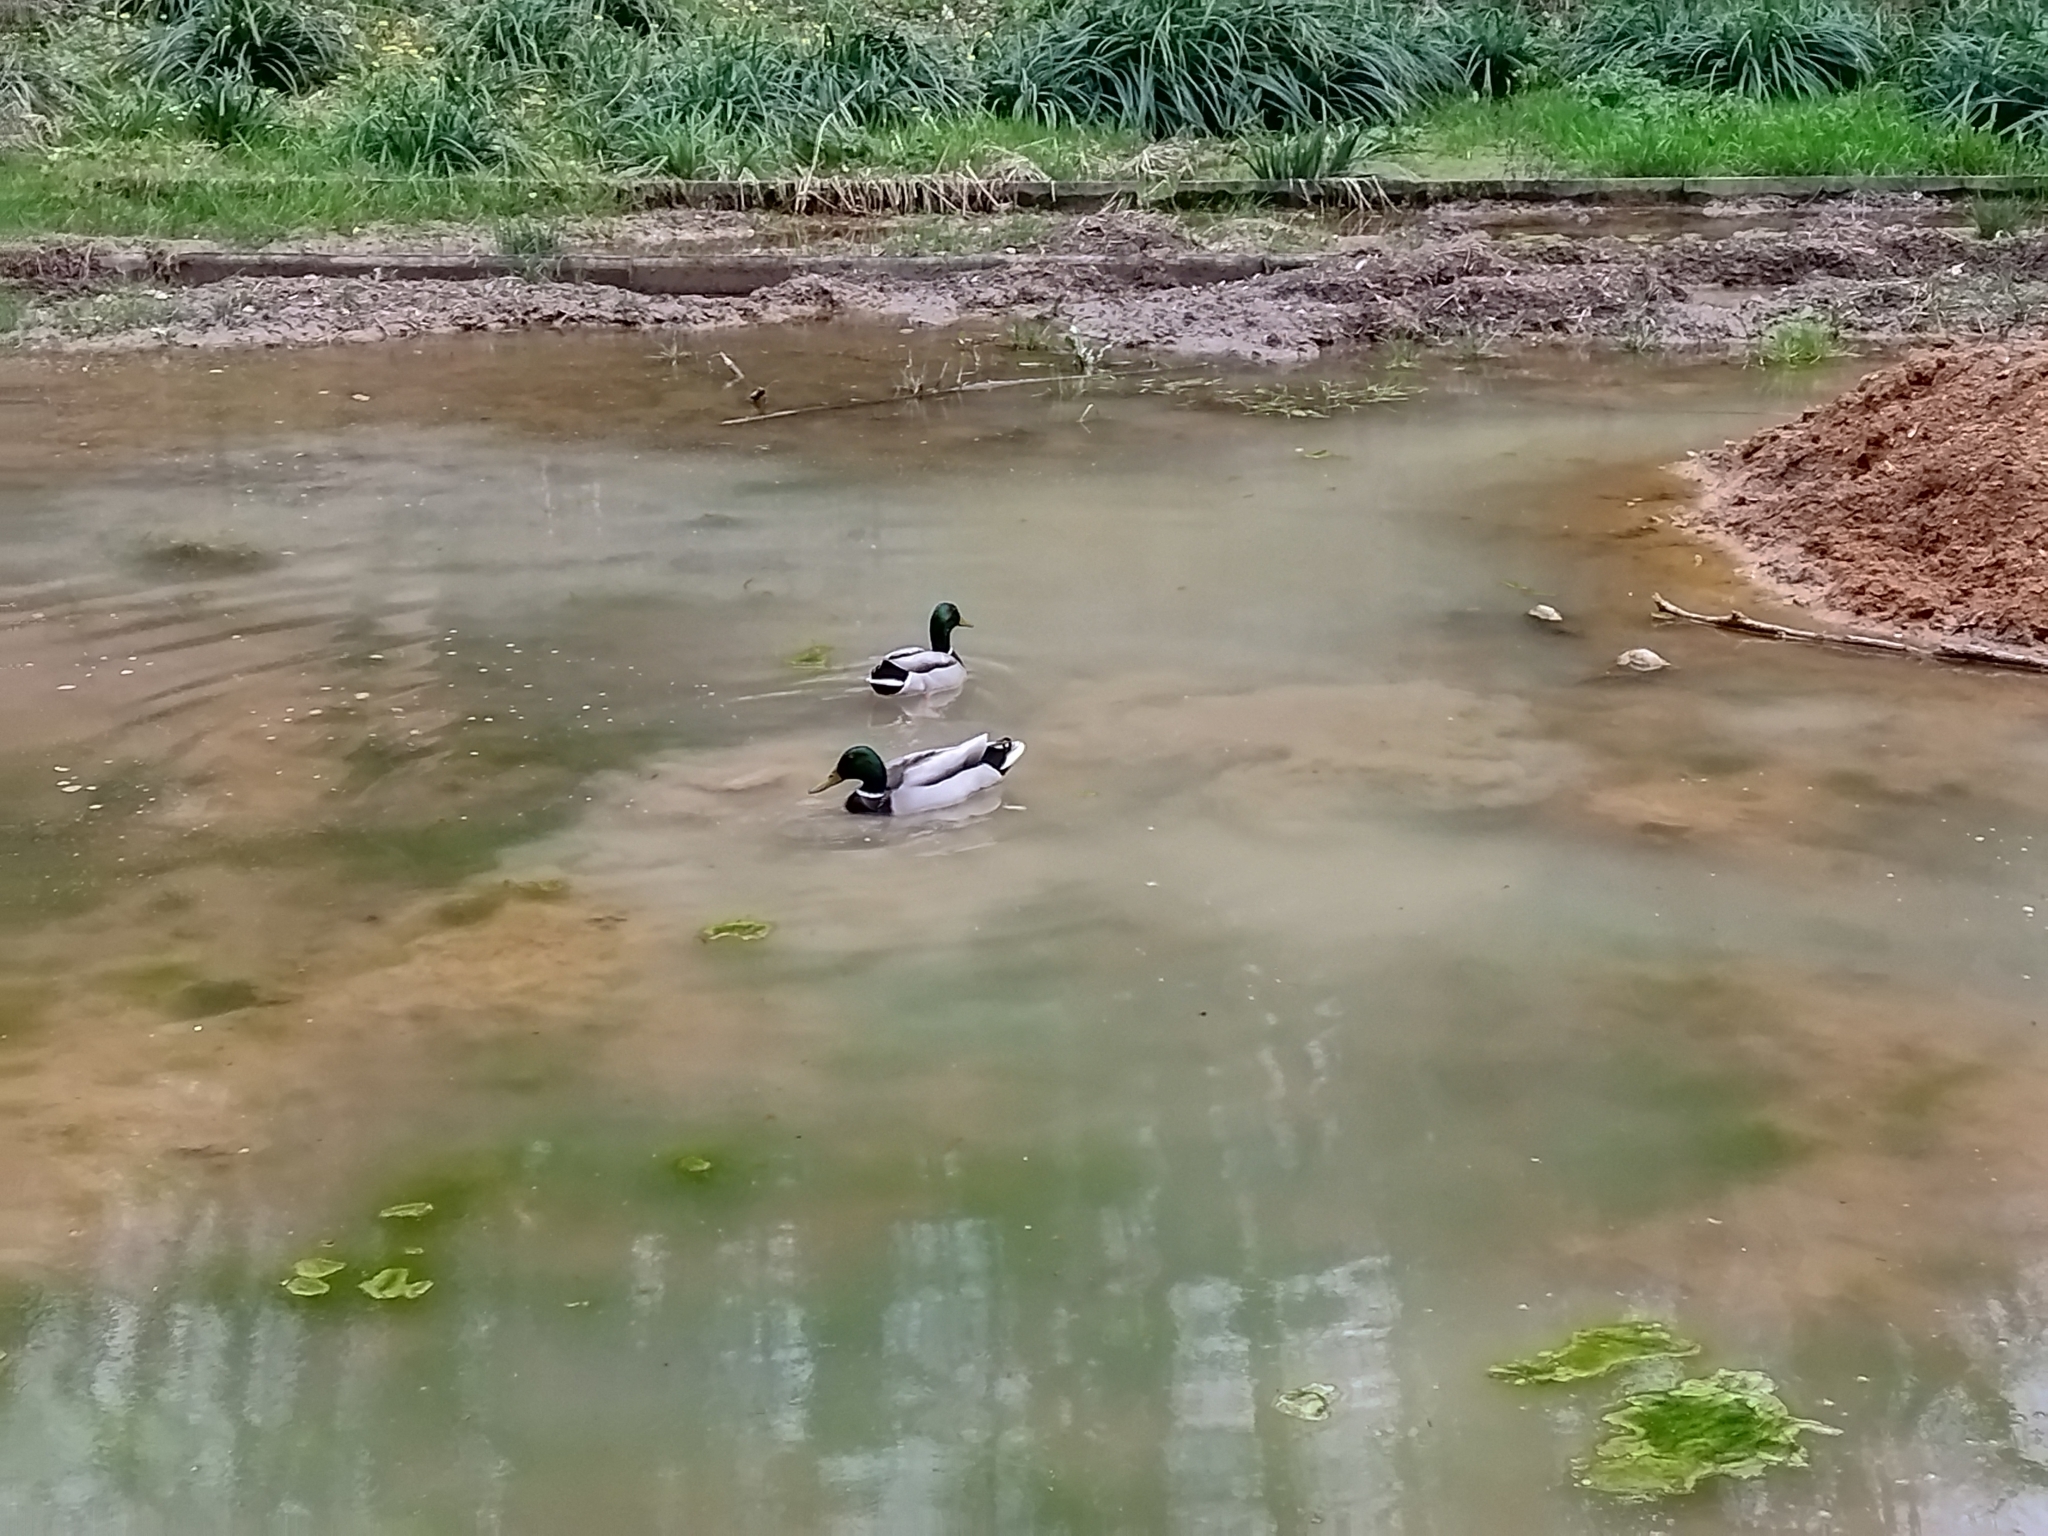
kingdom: Animalia
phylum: Chordata
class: Aves
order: Anseriformes
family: Anatidae
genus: Anas
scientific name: Anas platyrhynchos
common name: Mallard
